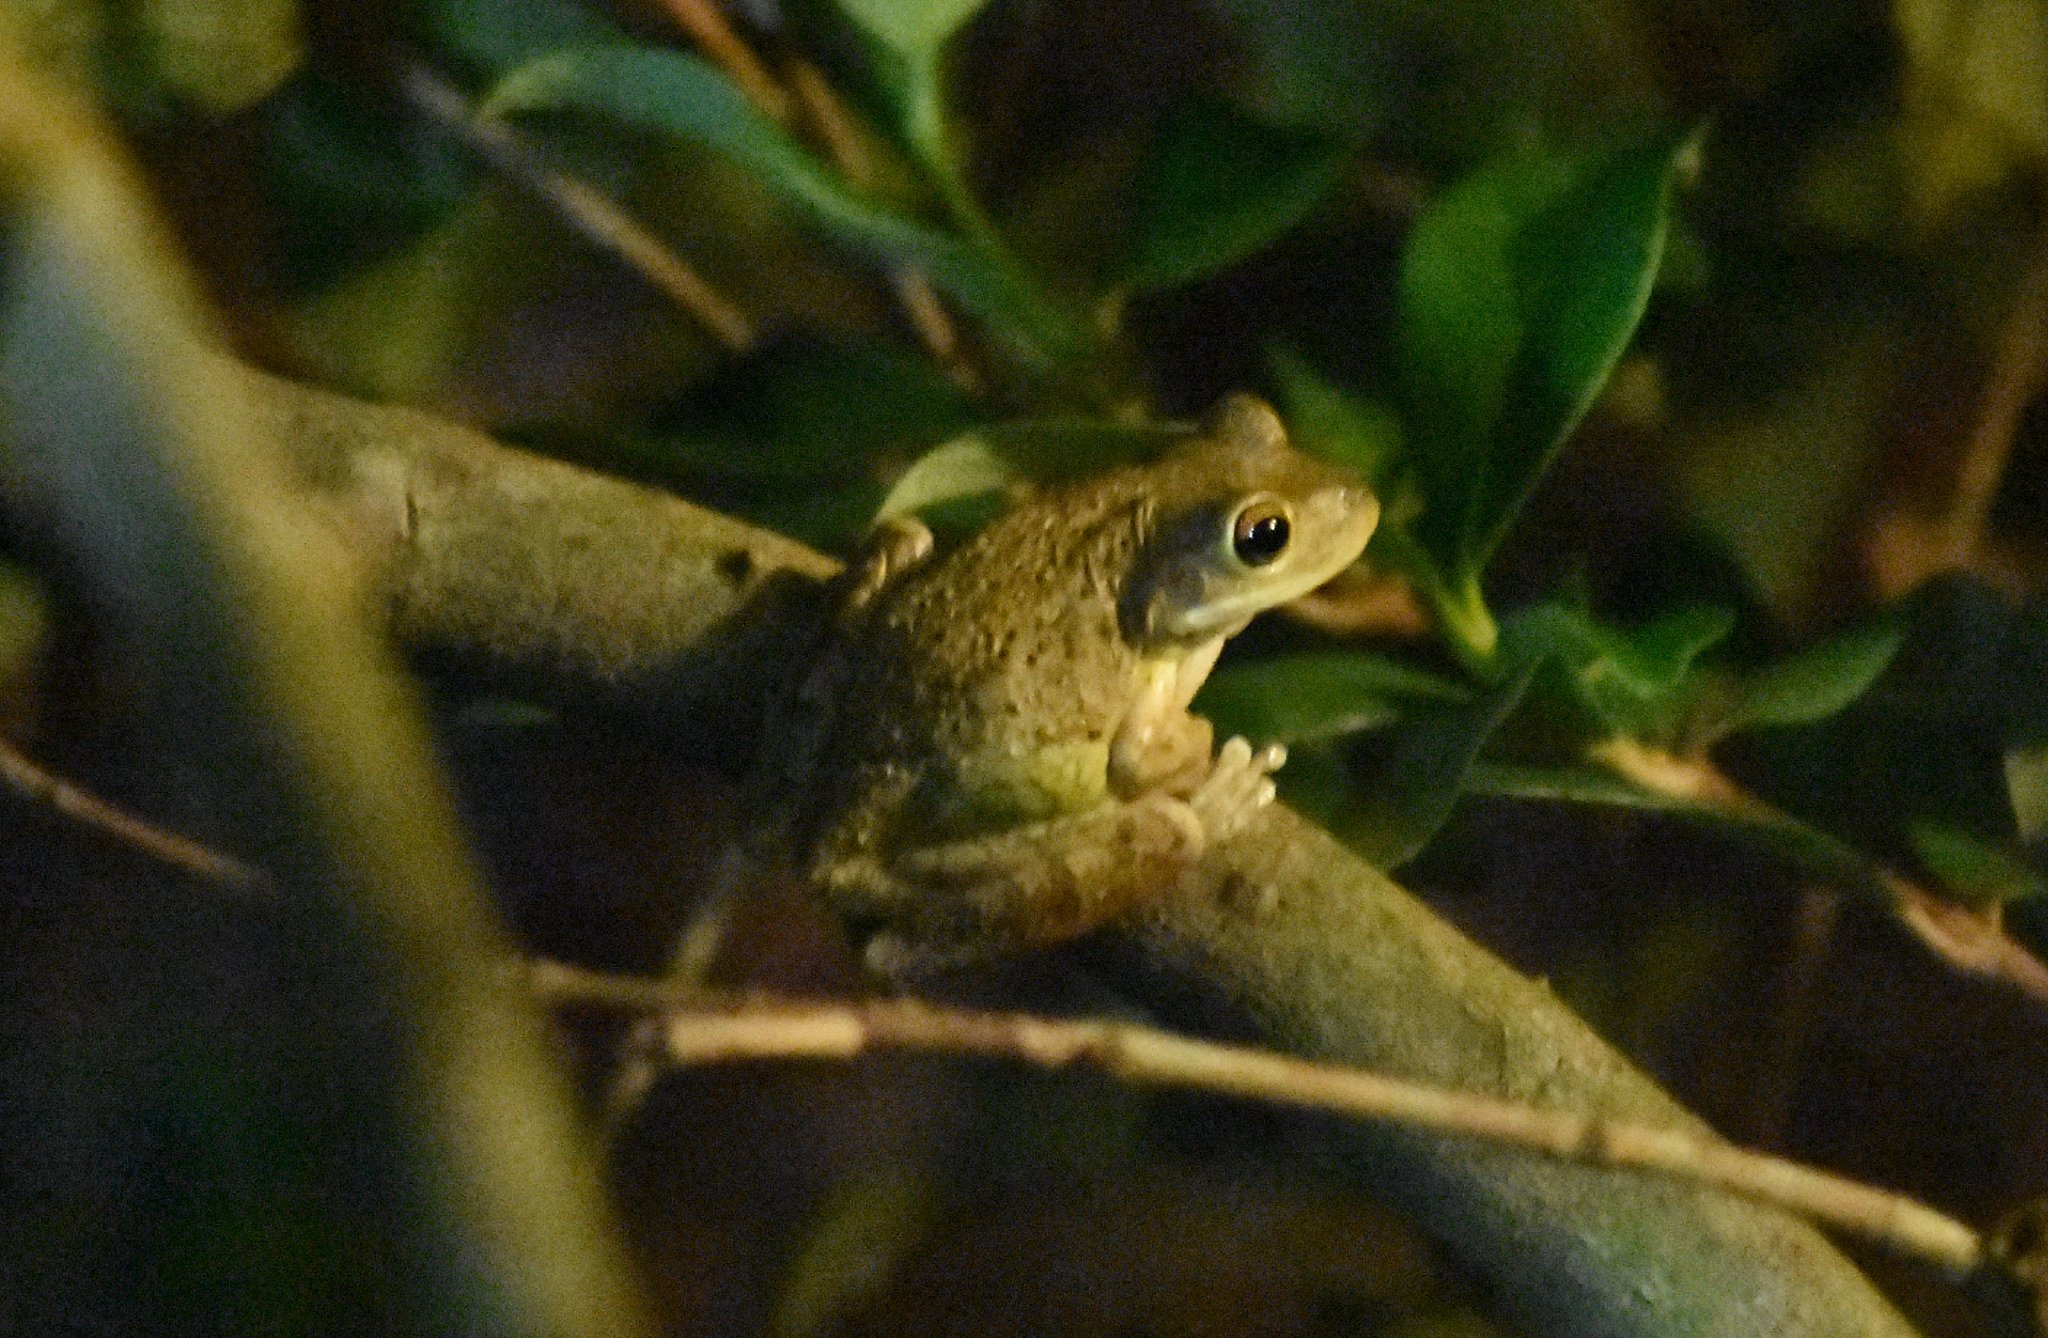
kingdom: Animalia
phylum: Chordata
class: Amphibia
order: Anura
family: Hylidae
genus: Osteopilus
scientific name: Osteopilus septentrionalis
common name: Cuban treefrog
